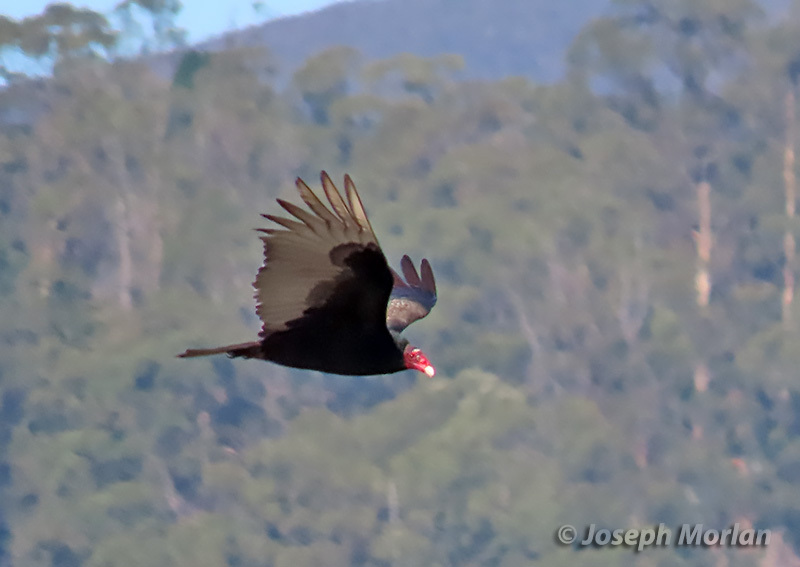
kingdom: Animalia
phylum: Chordata
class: Aves
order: Accipitriformes
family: Cathartidae
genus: Cathartes
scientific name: Cathartes aura
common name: Turkey vulture
